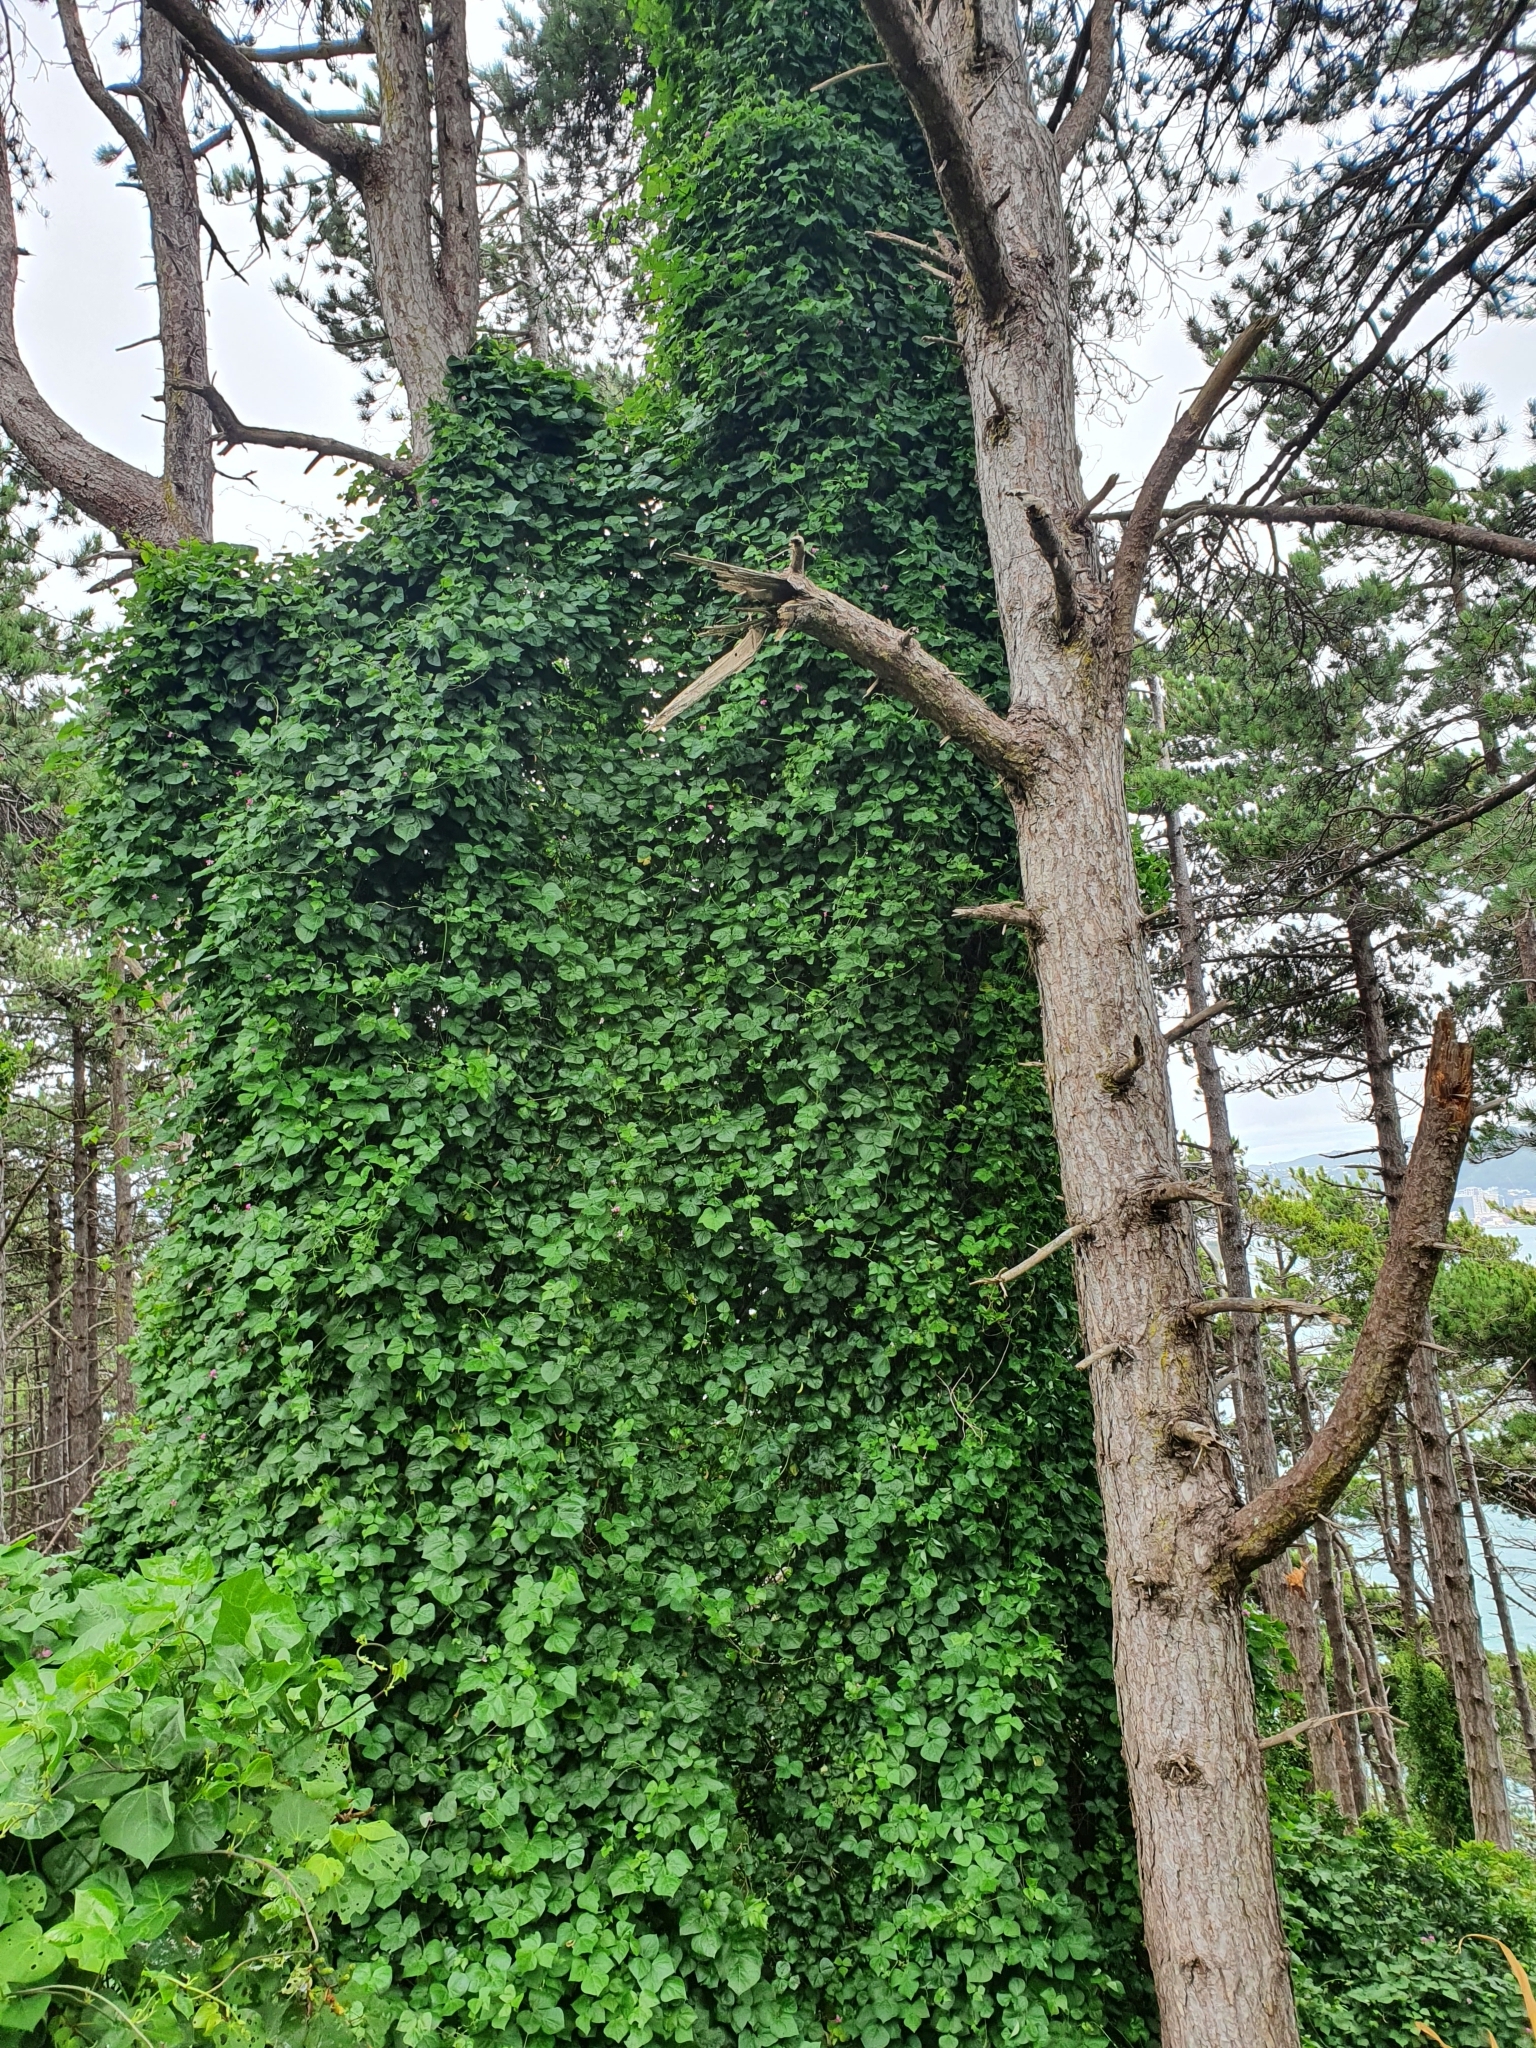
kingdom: Plantae
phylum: Tracheophyta
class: Magnoliopsida
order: Fabales
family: Fabaceae
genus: Dipogon
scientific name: Dipogon lignosus
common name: Okie bean
